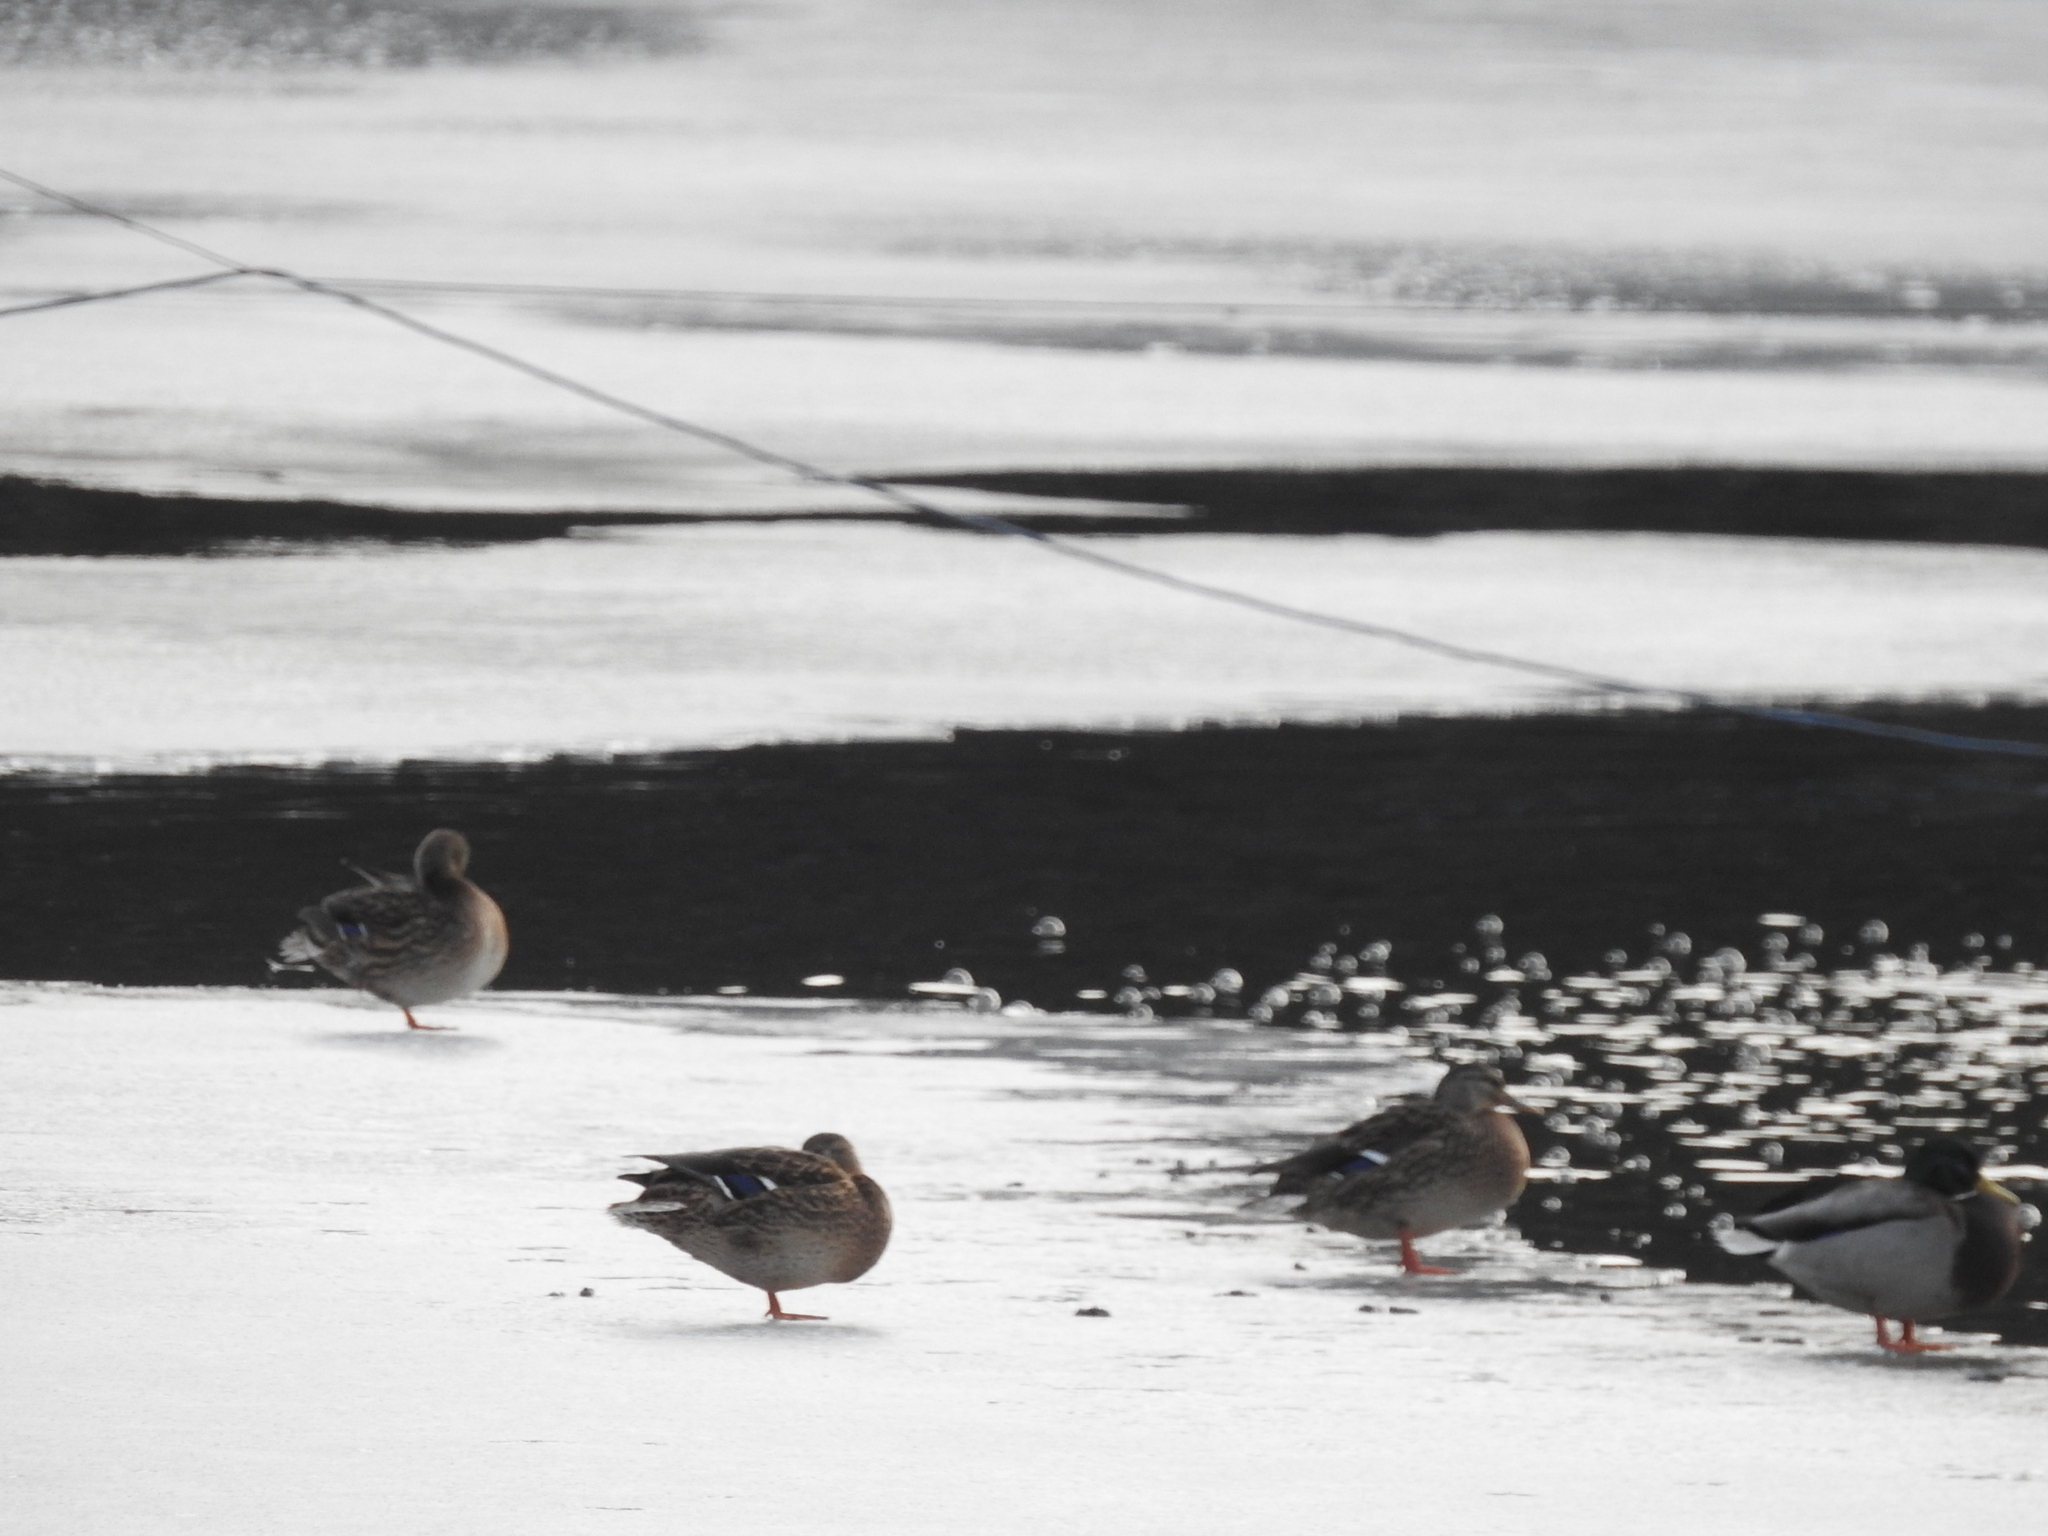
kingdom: Animalia
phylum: Chordata
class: Aves
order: Anseriformes
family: Anatidae
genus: Anas
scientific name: Anas platyrhynchos
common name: Mallard
